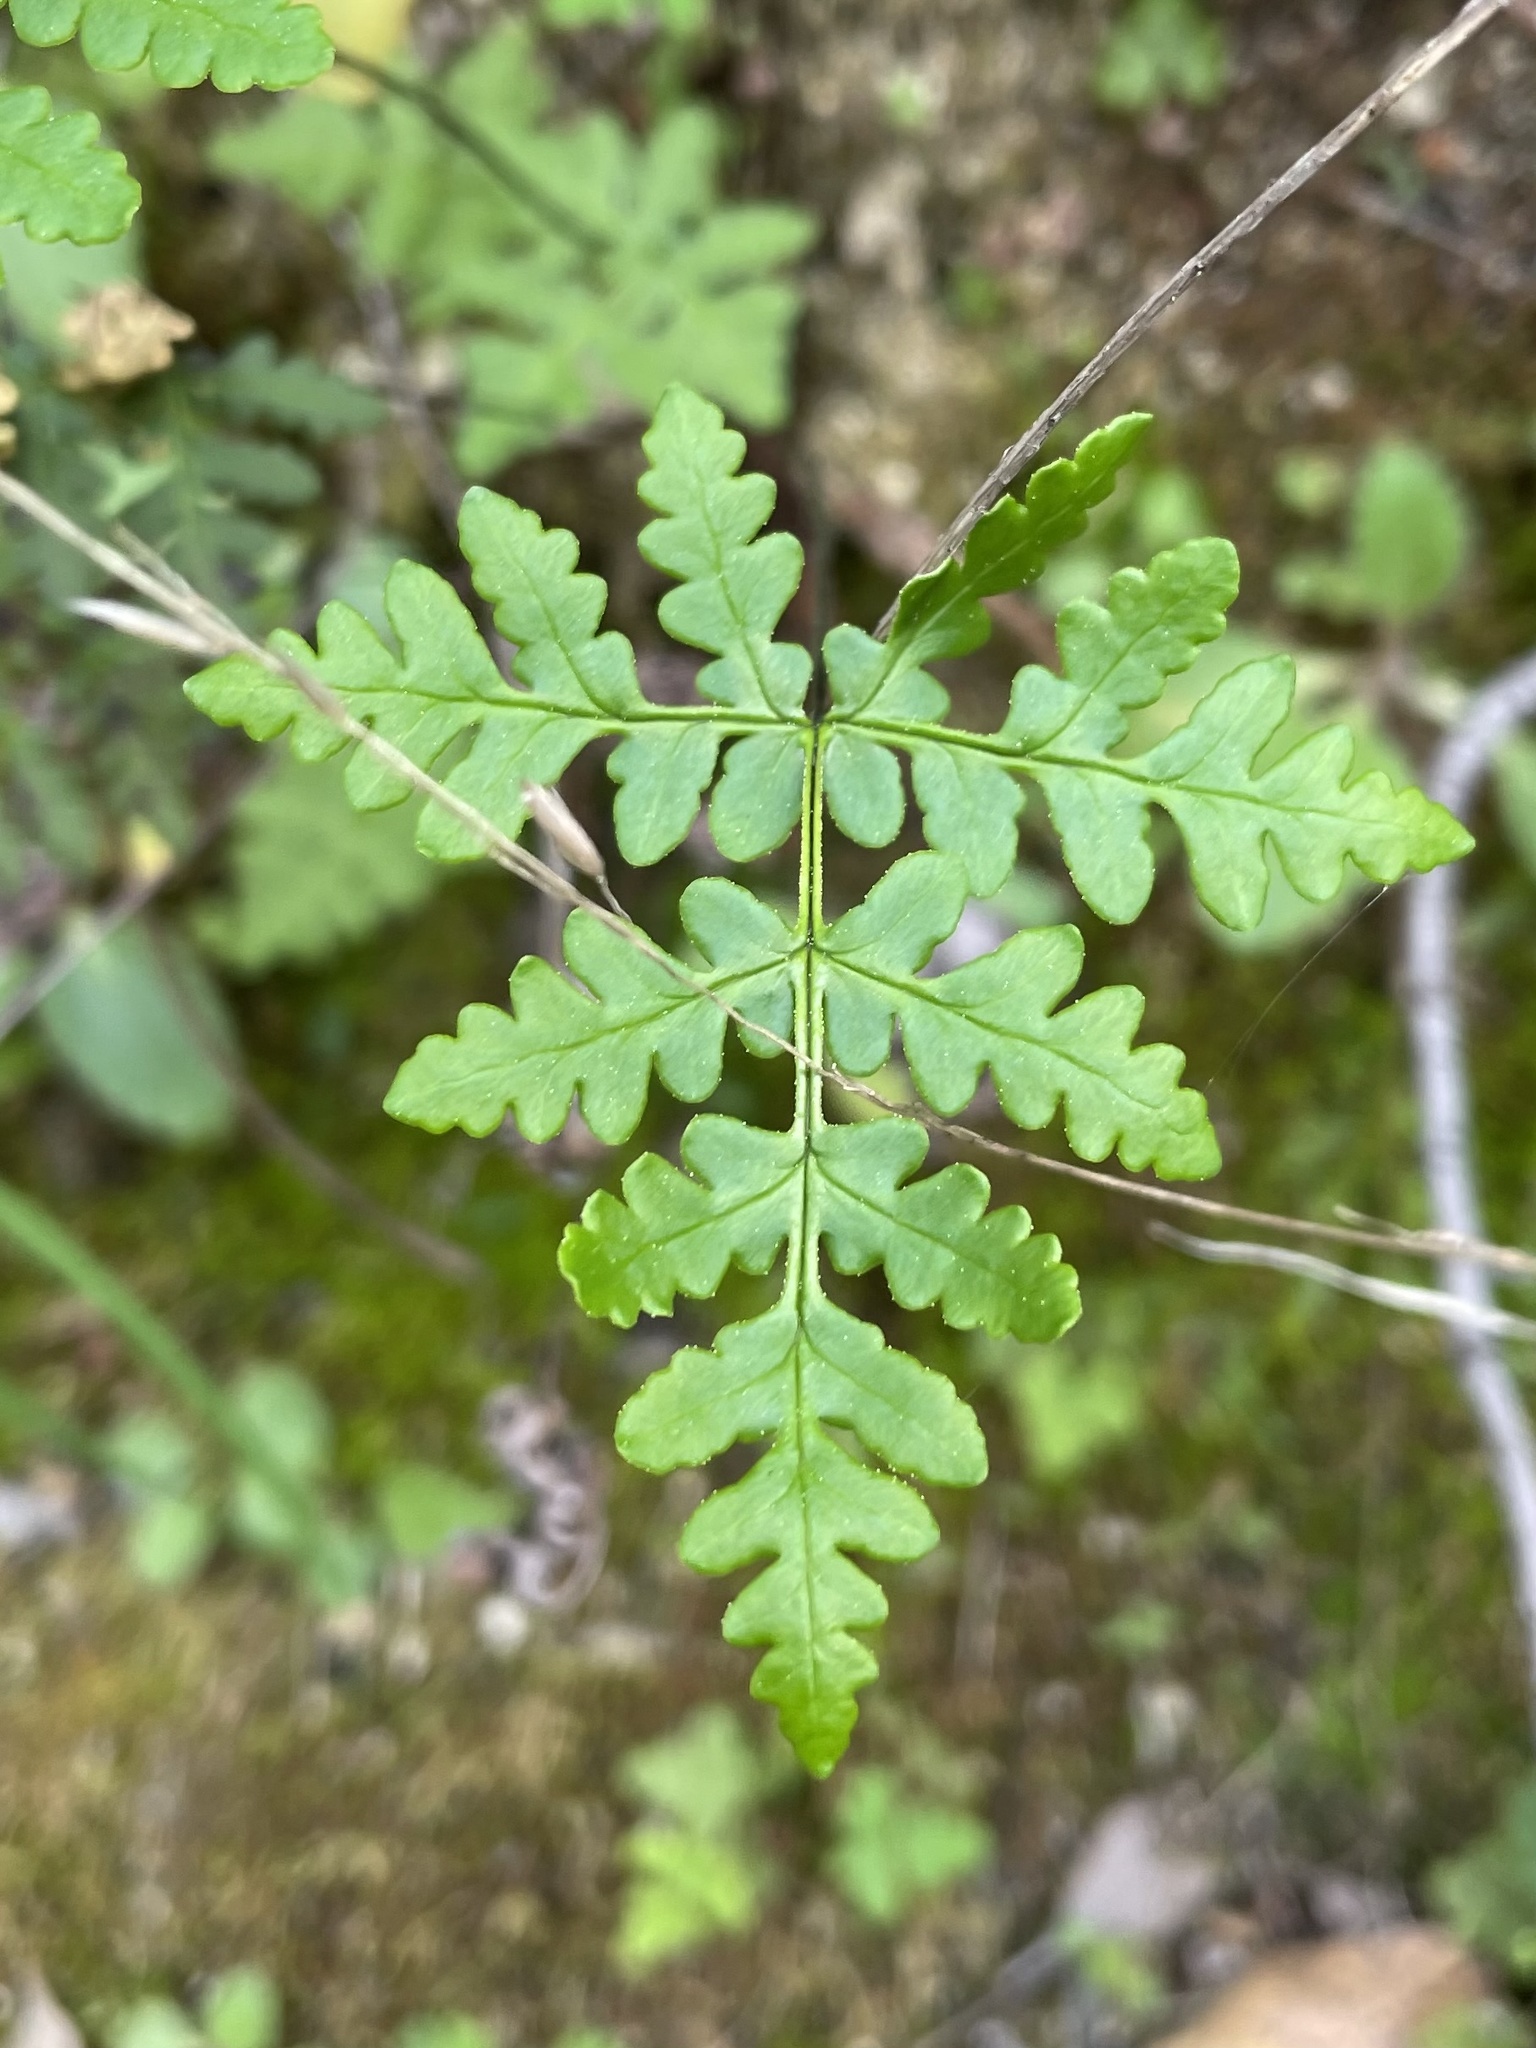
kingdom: Plantae
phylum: Tracheophyta
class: Polypodiopsida
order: Polypodiales
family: Pteridaceae
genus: Pentagramma
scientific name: Pentagramma triangularis
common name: Gold fern
